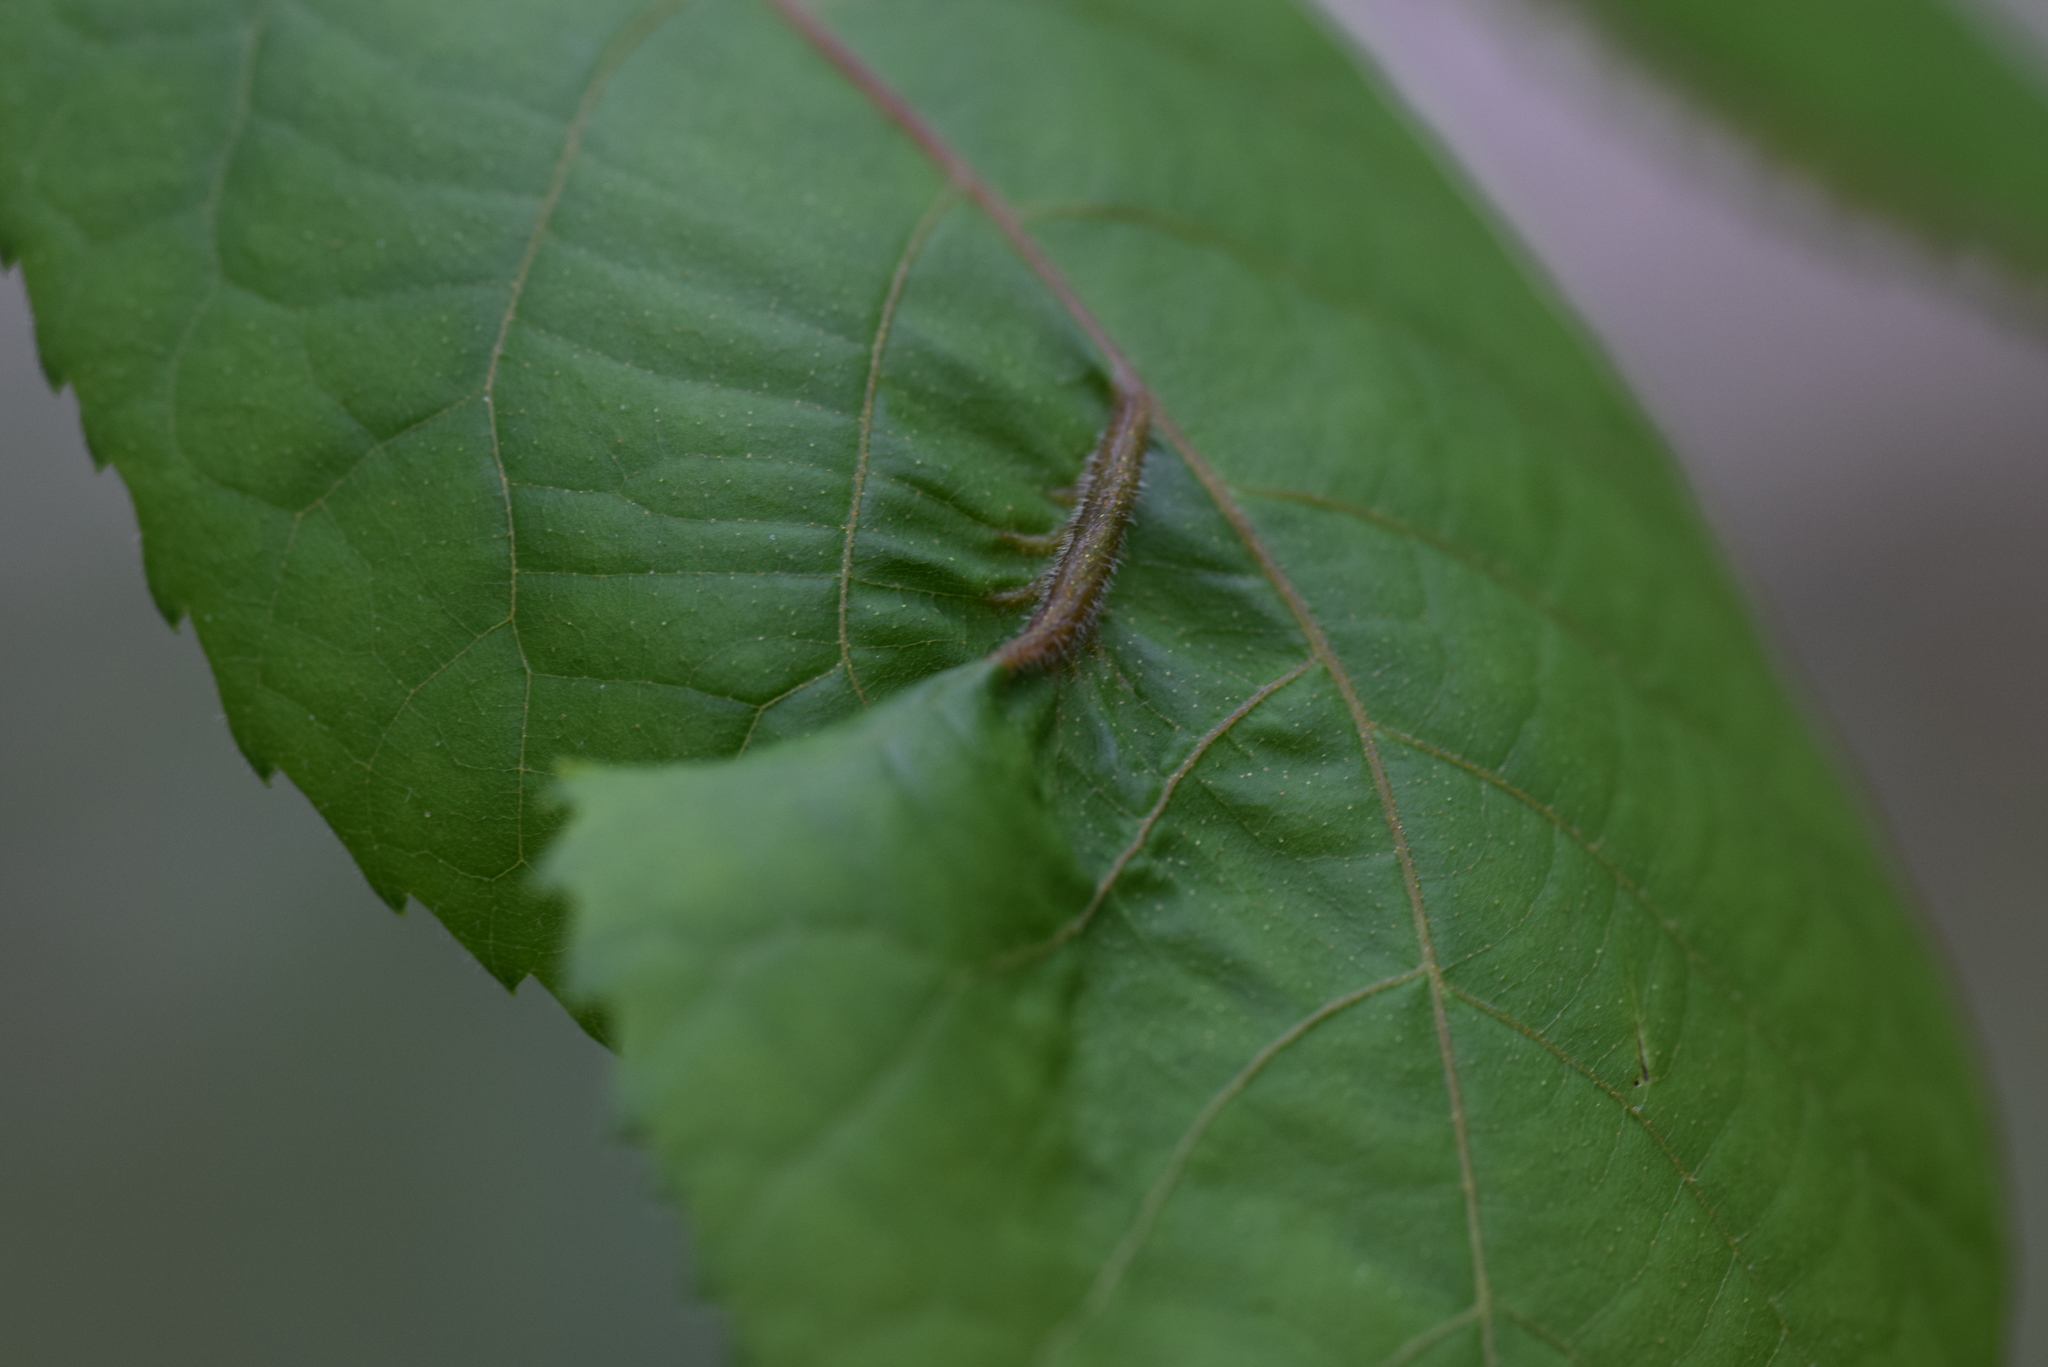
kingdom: Animalia
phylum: Arthropoda
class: Insecta
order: Hemiptera
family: Phylloxeridae
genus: Phylloxera
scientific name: Phylloxera caryaevenae
